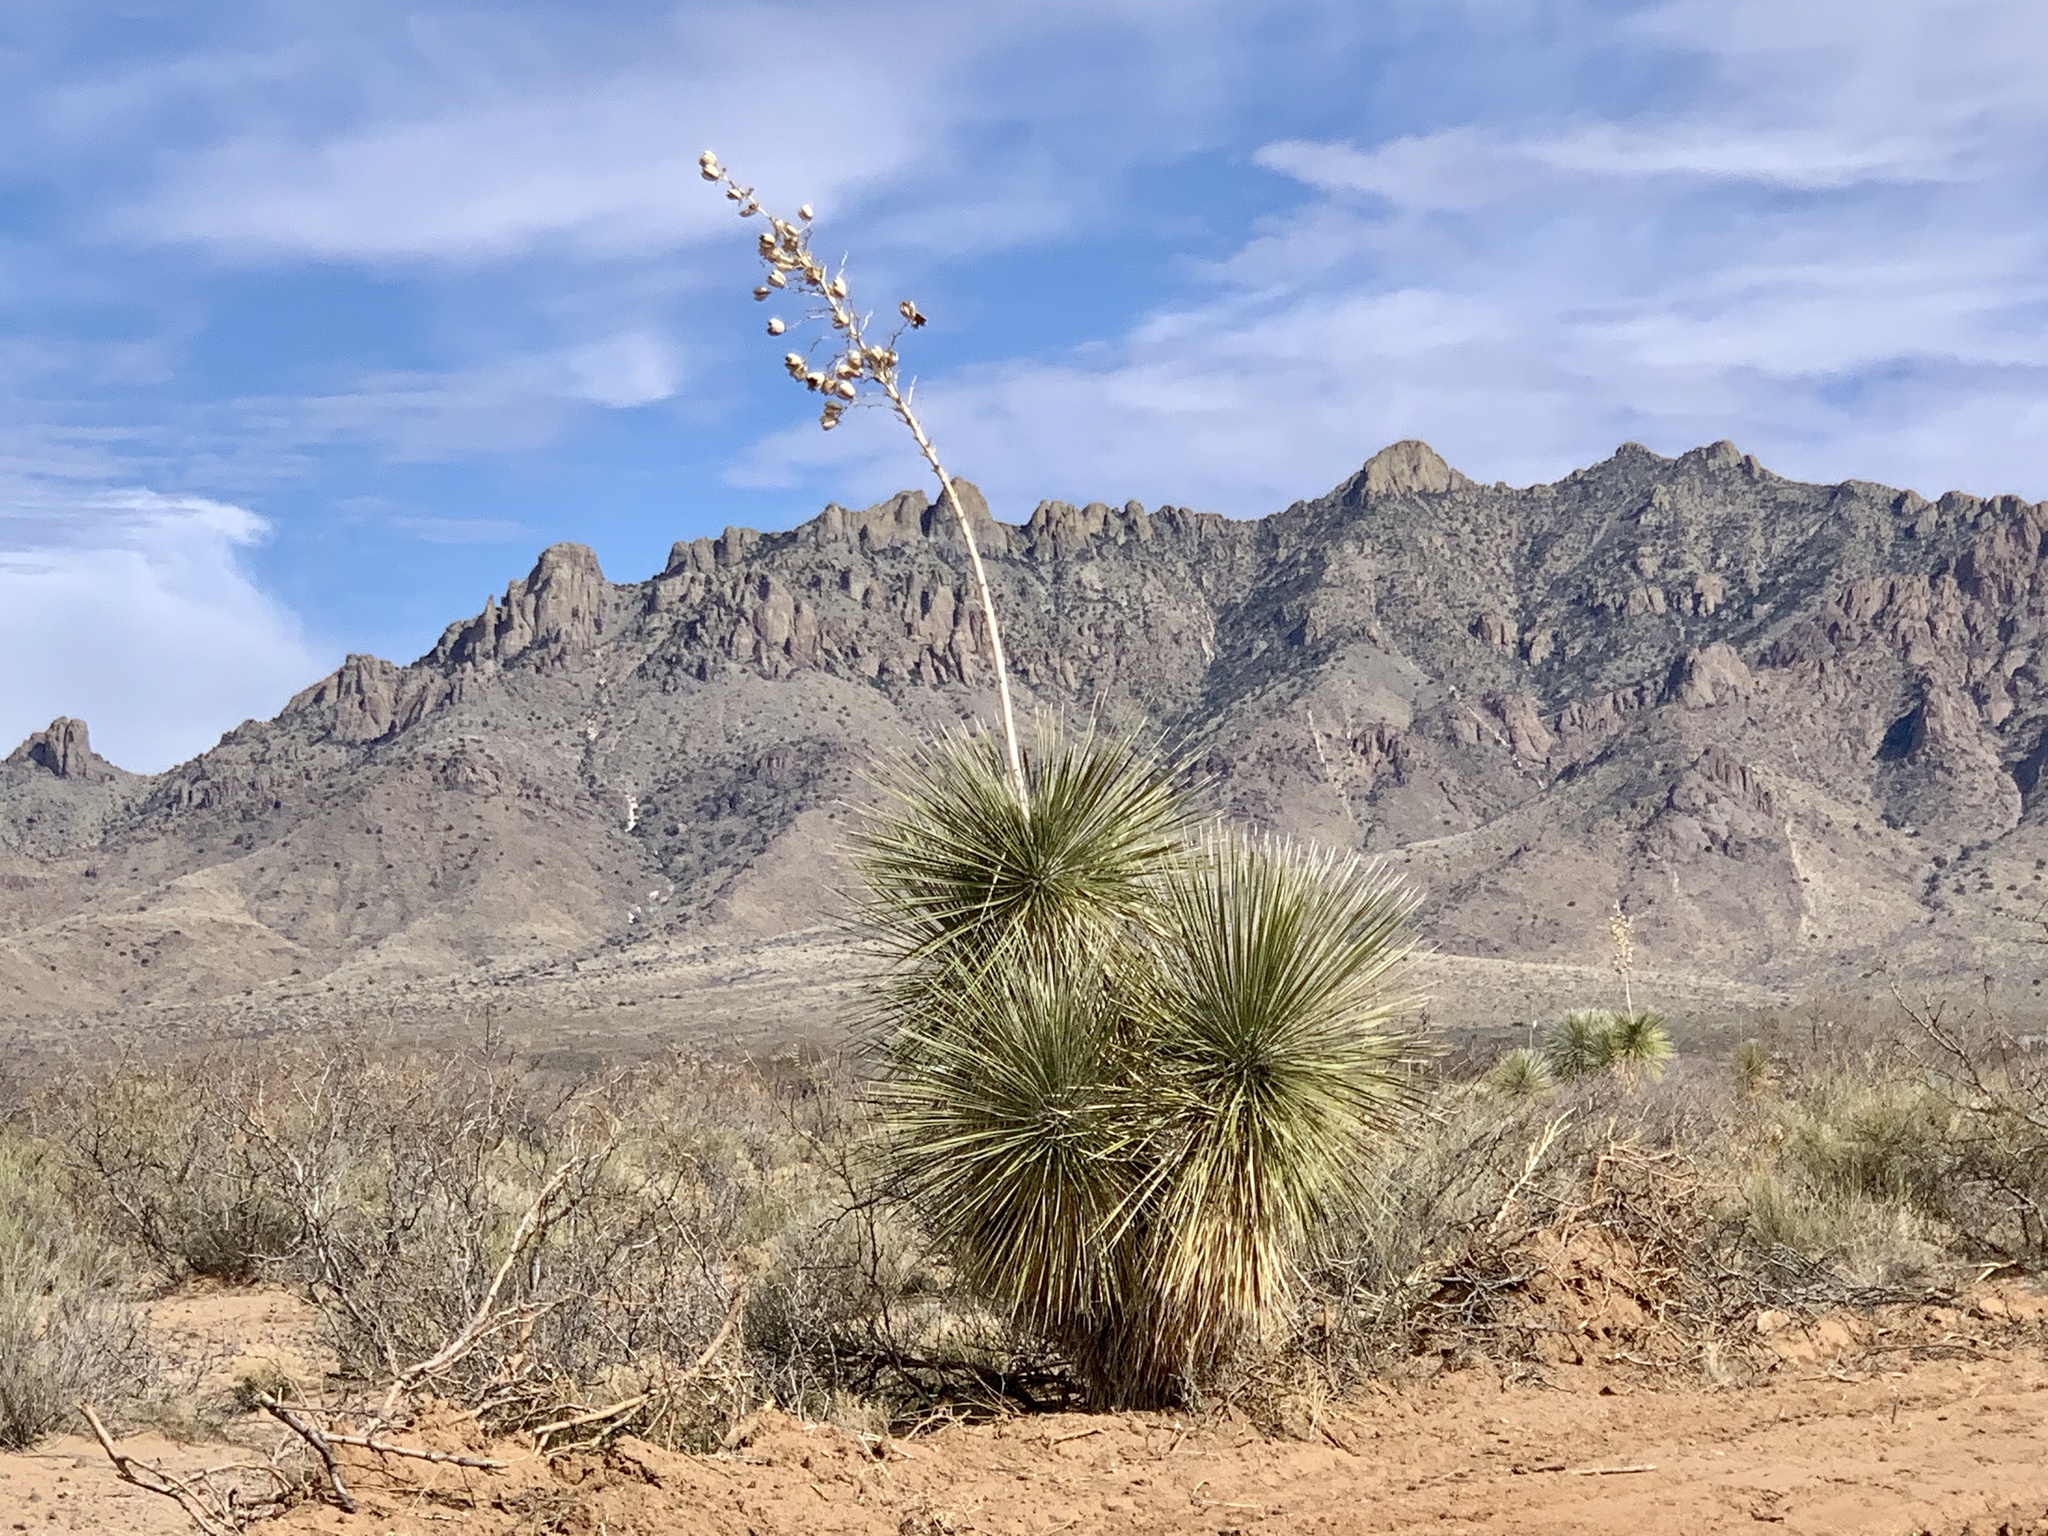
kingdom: Plantae
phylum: Tracheophyta
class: Liliopsida
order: Asparagales
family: Asparagaceae
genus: Yucca
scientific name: Yucca elata
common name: Palmella
